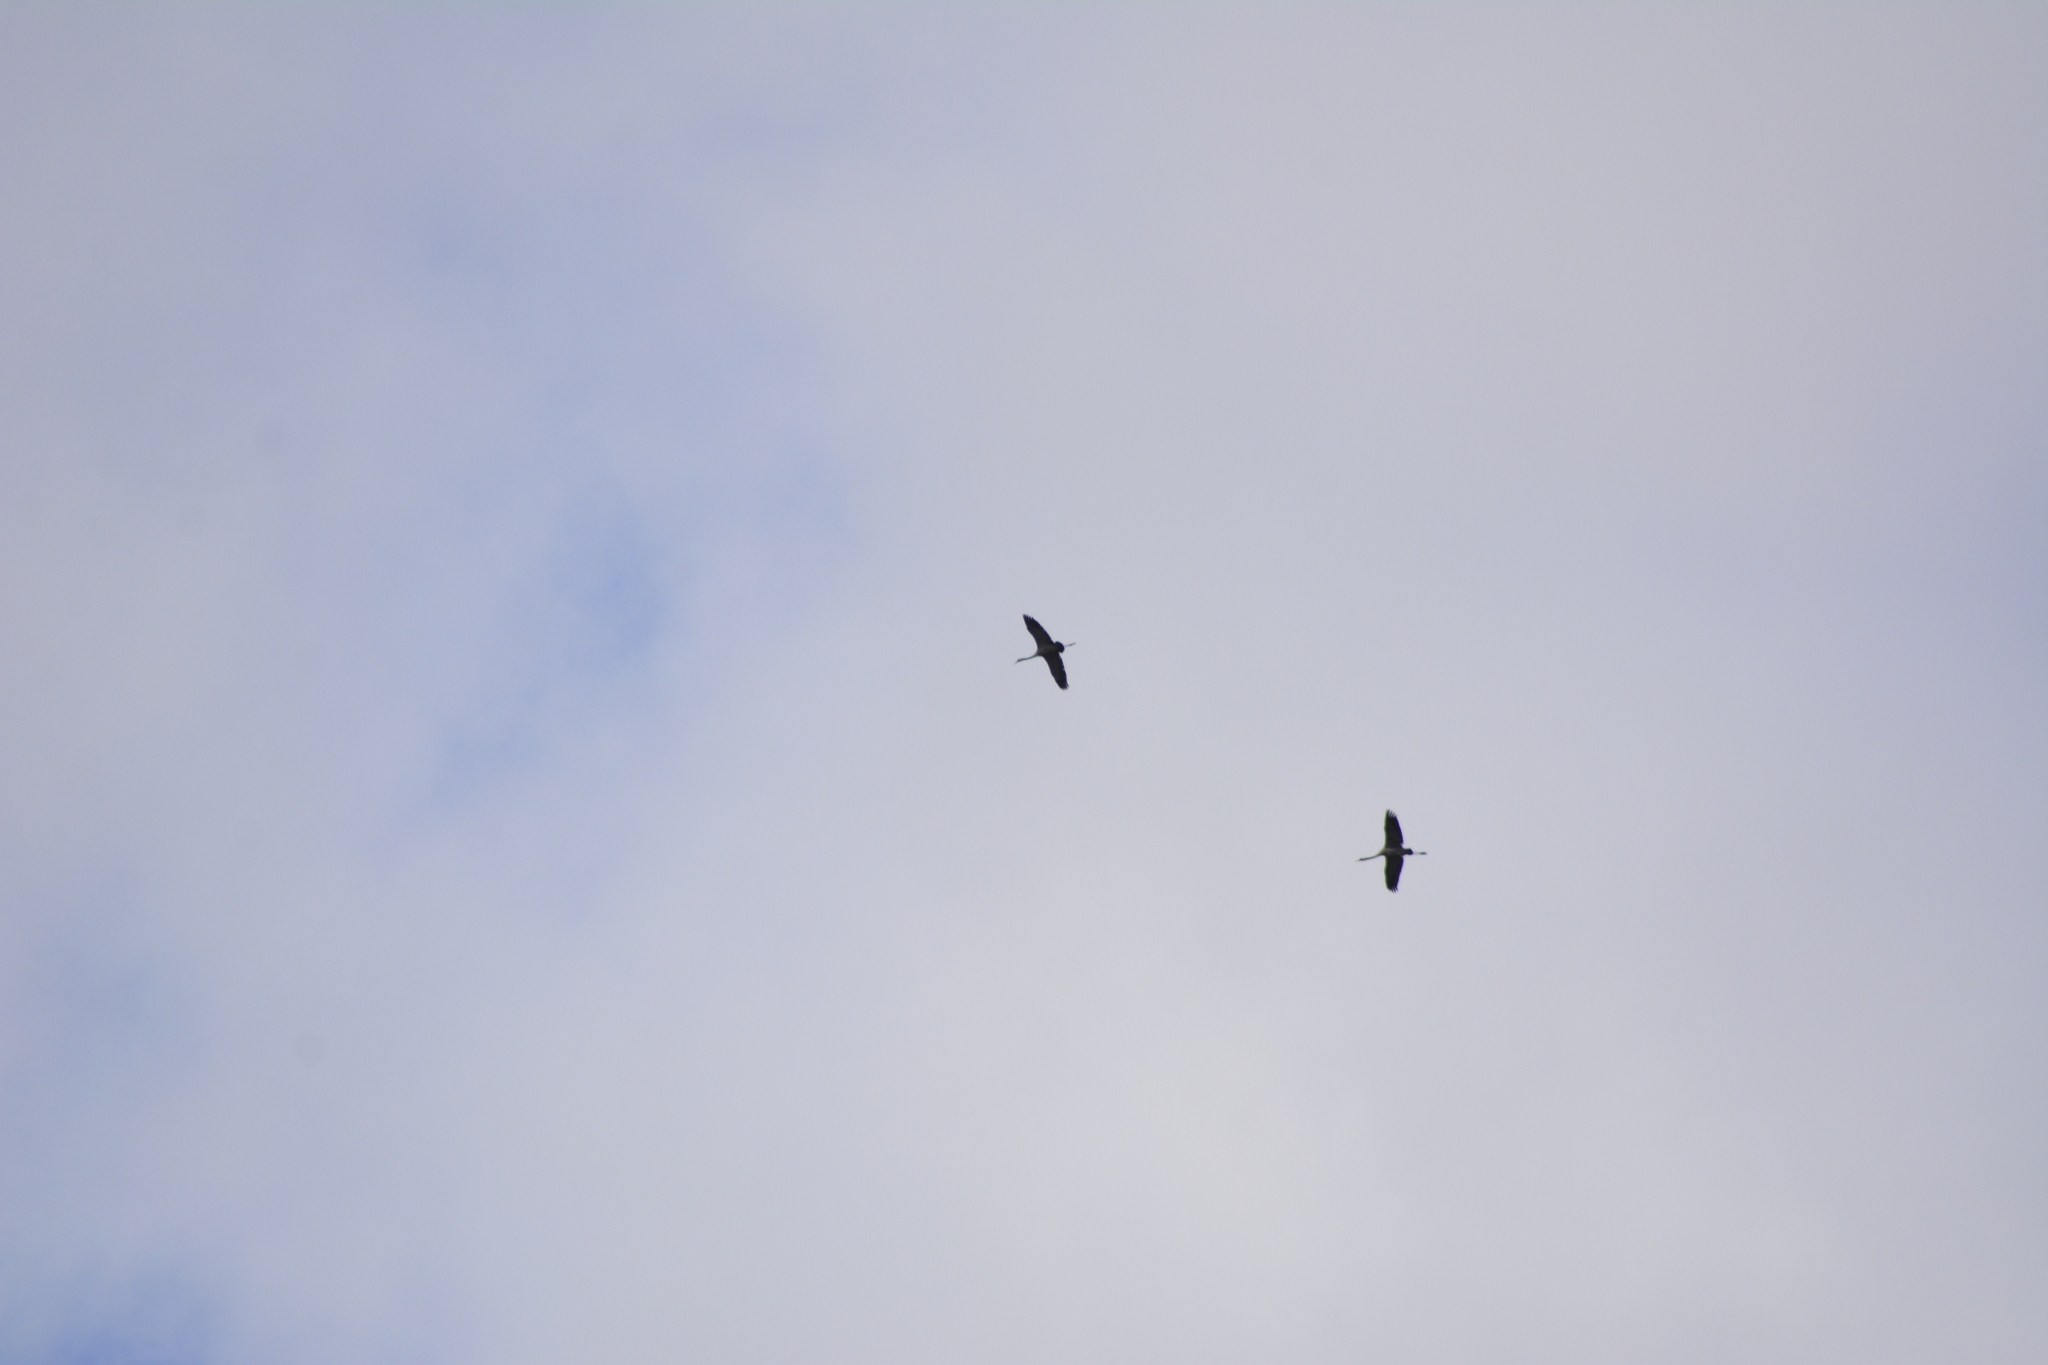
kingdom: Animalia
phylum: Chordata
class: Aves
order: Gruiformes
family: Gruidae
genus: Grus
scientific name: Grus grus
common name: Common crane
